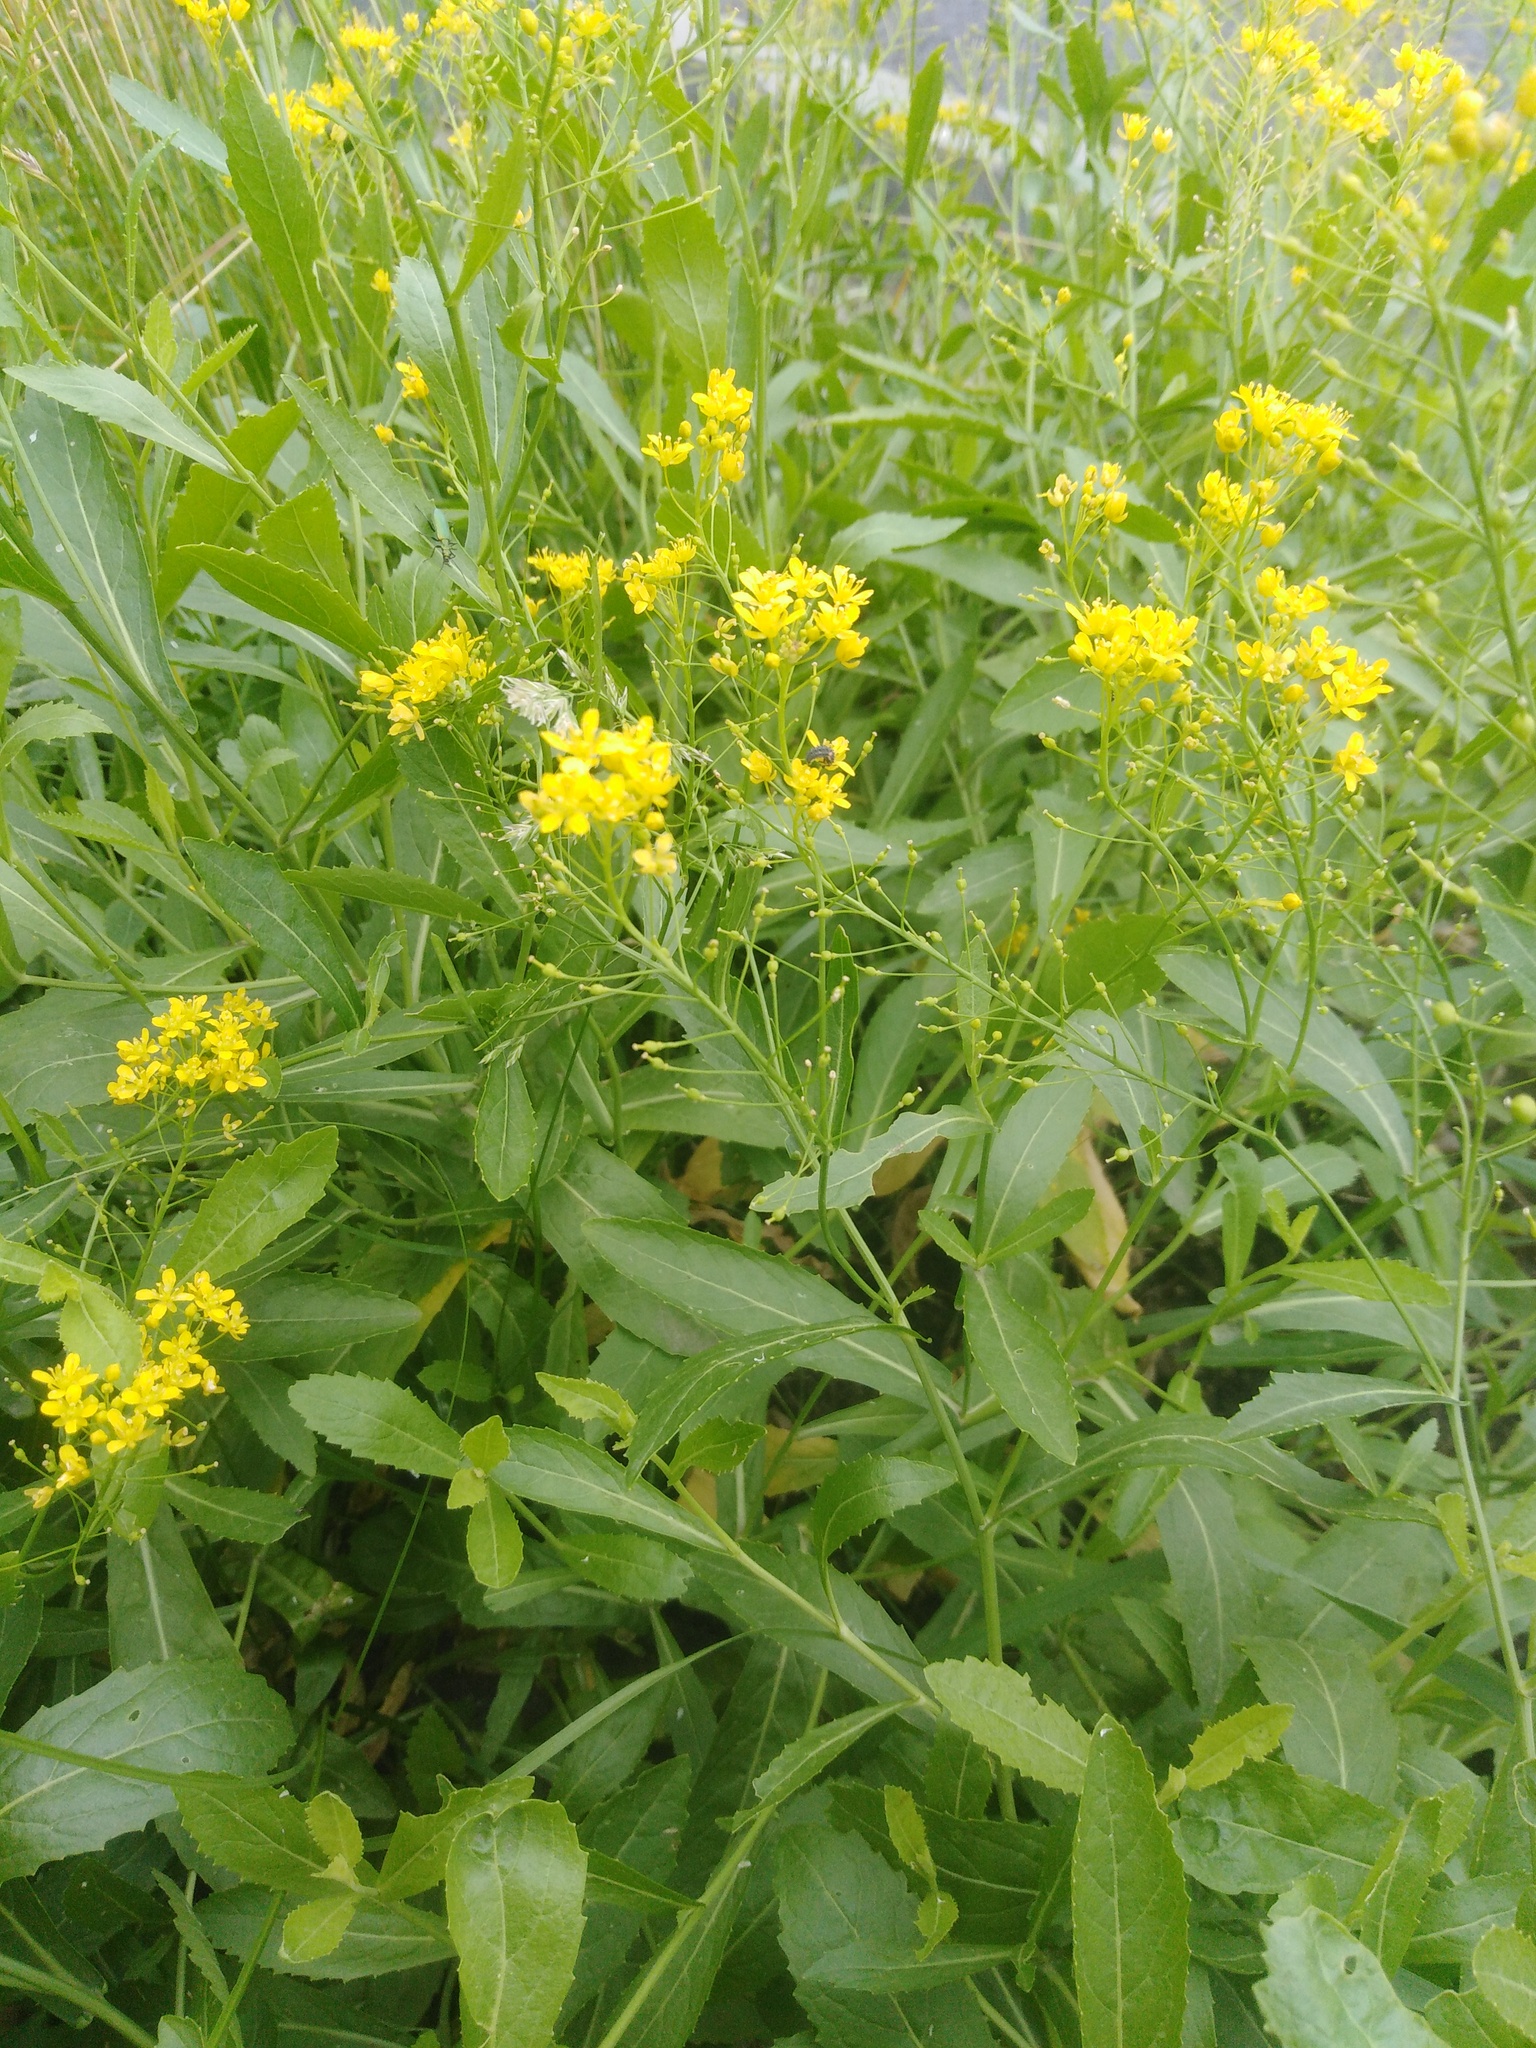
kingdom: Plantae
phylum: Tracheophyta
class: Magnoliopsida
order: Brassicales
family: Brassicaceae
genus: Rorippa
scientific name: Rorippa austriaca
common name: Austrian yellow-cress
